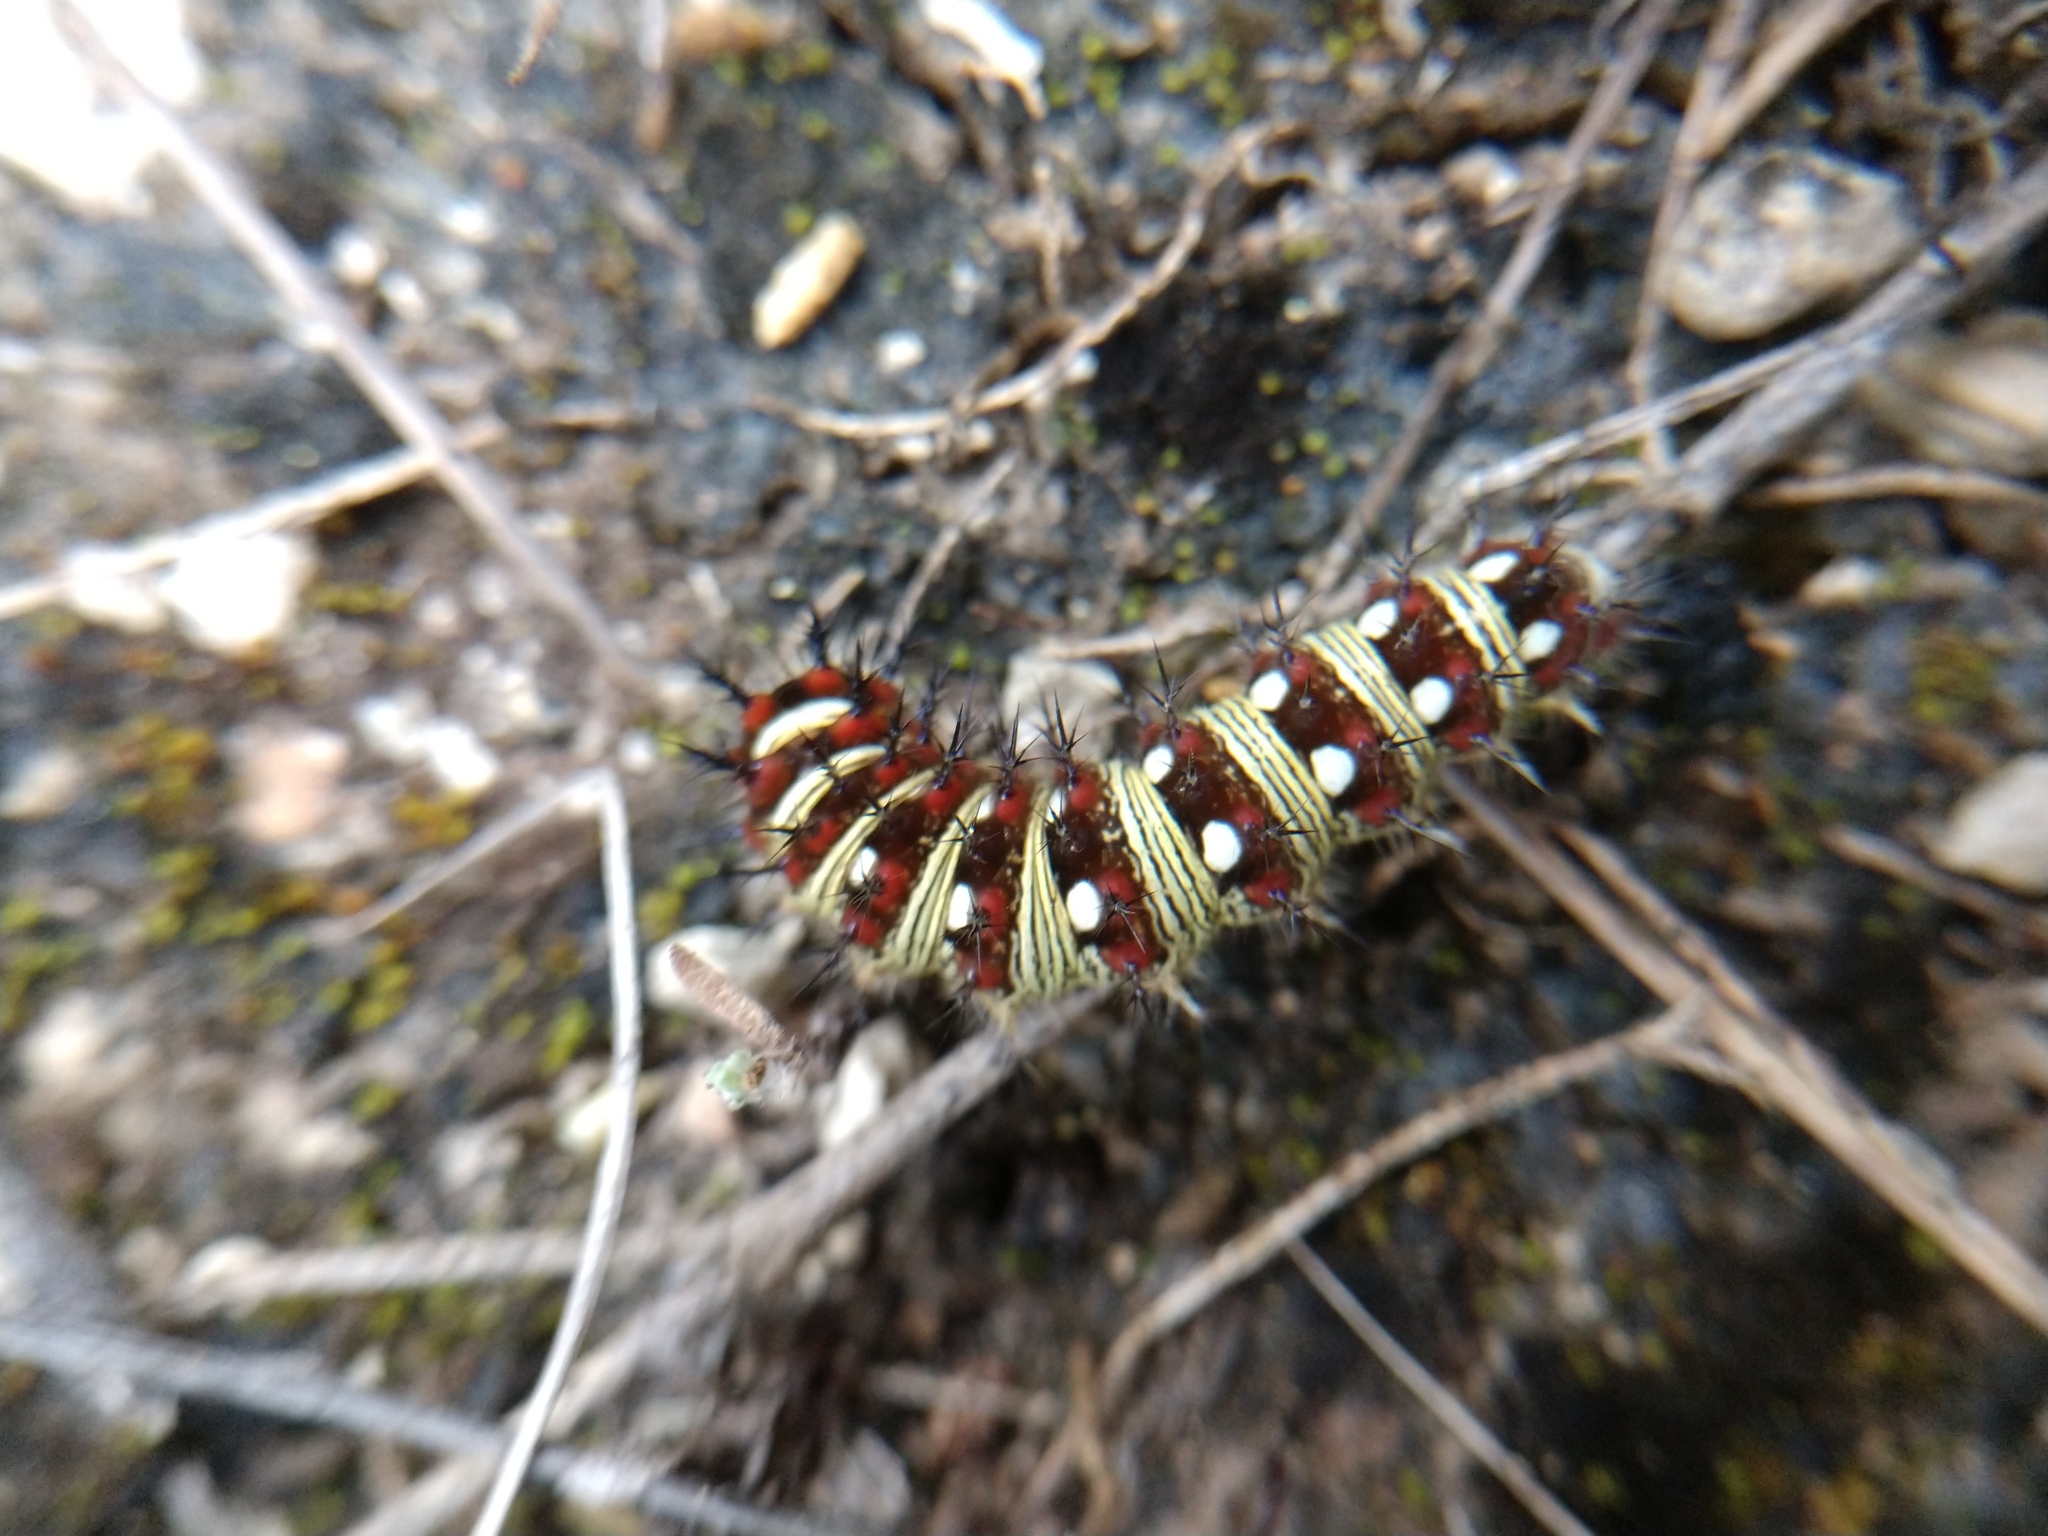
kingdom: Animalia
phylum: Arthropoda
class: Insecta
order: Lepidoptera
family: Nymphalidae
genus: Vanessa
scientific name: Vanessa virginiensis
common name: American lady
